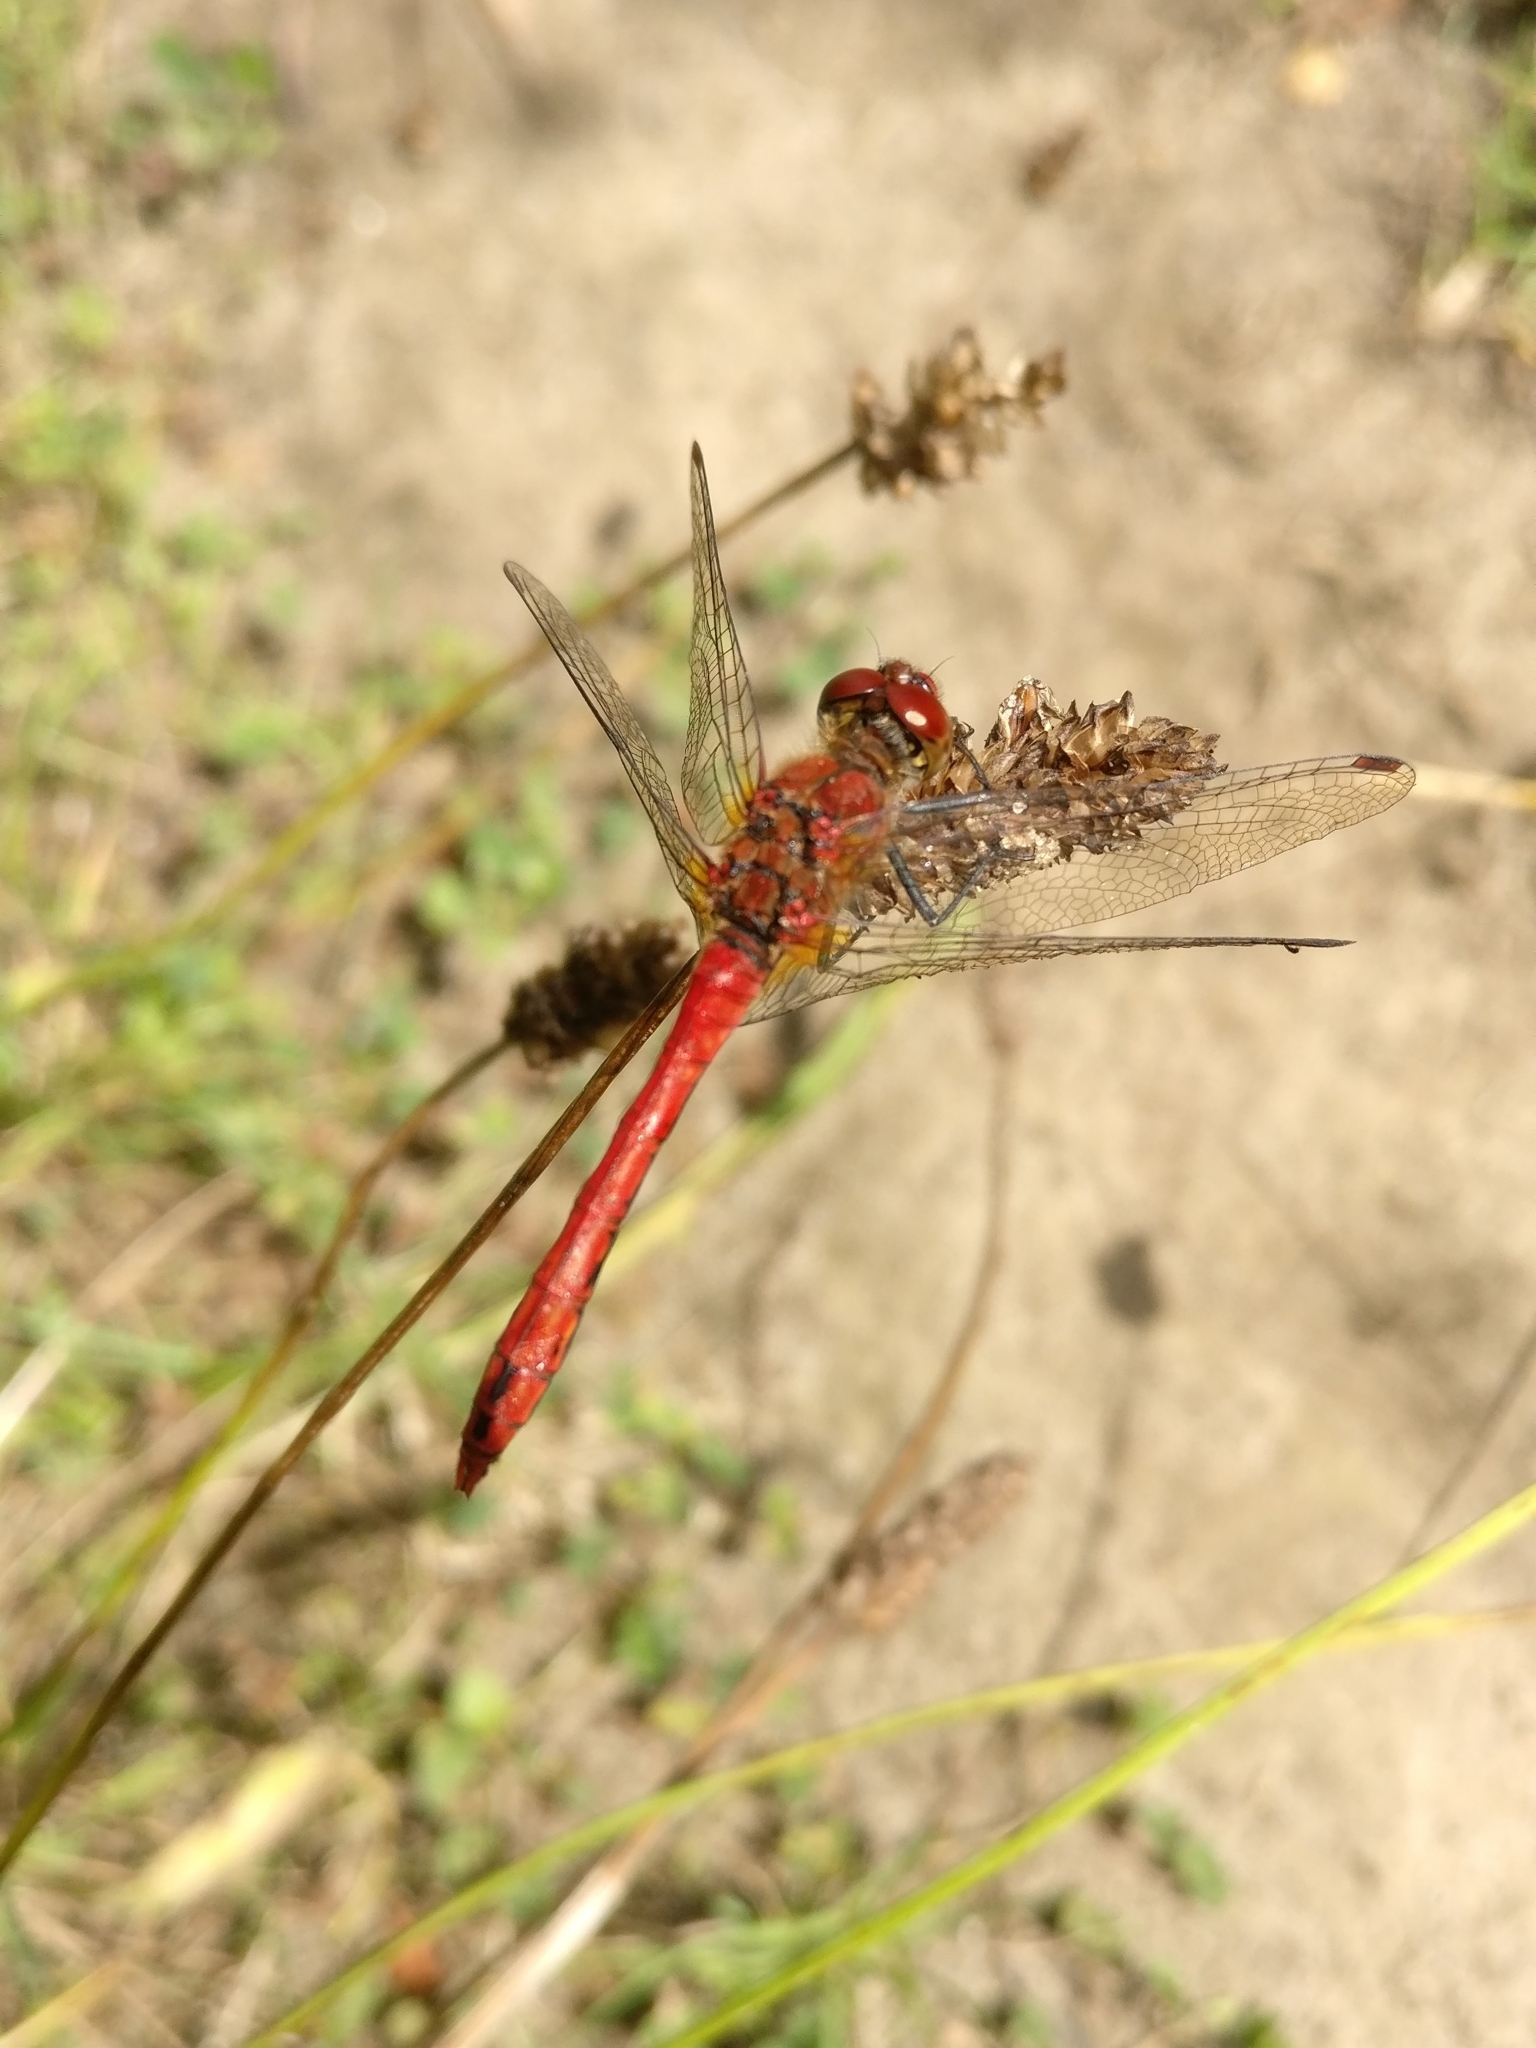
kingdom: Animalia
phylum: Arthropoda
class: Insecta
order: Odonata
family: Libellulidae
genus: Sympetrum
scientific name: Sympetrum sanguineum
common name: Ruddy darter
